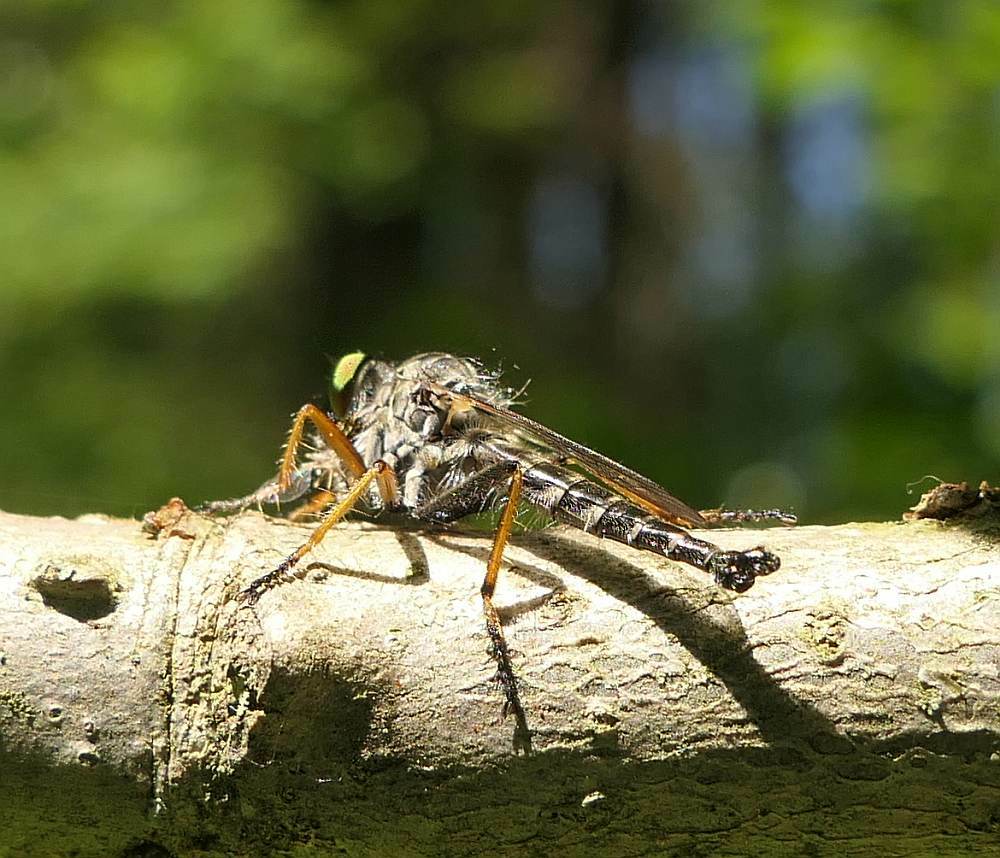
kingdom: Animalia
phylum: Arthropoda
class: Insecta
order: Diptera
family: Asilidae
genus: Asilus
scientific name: Asilus flavofemoratus
